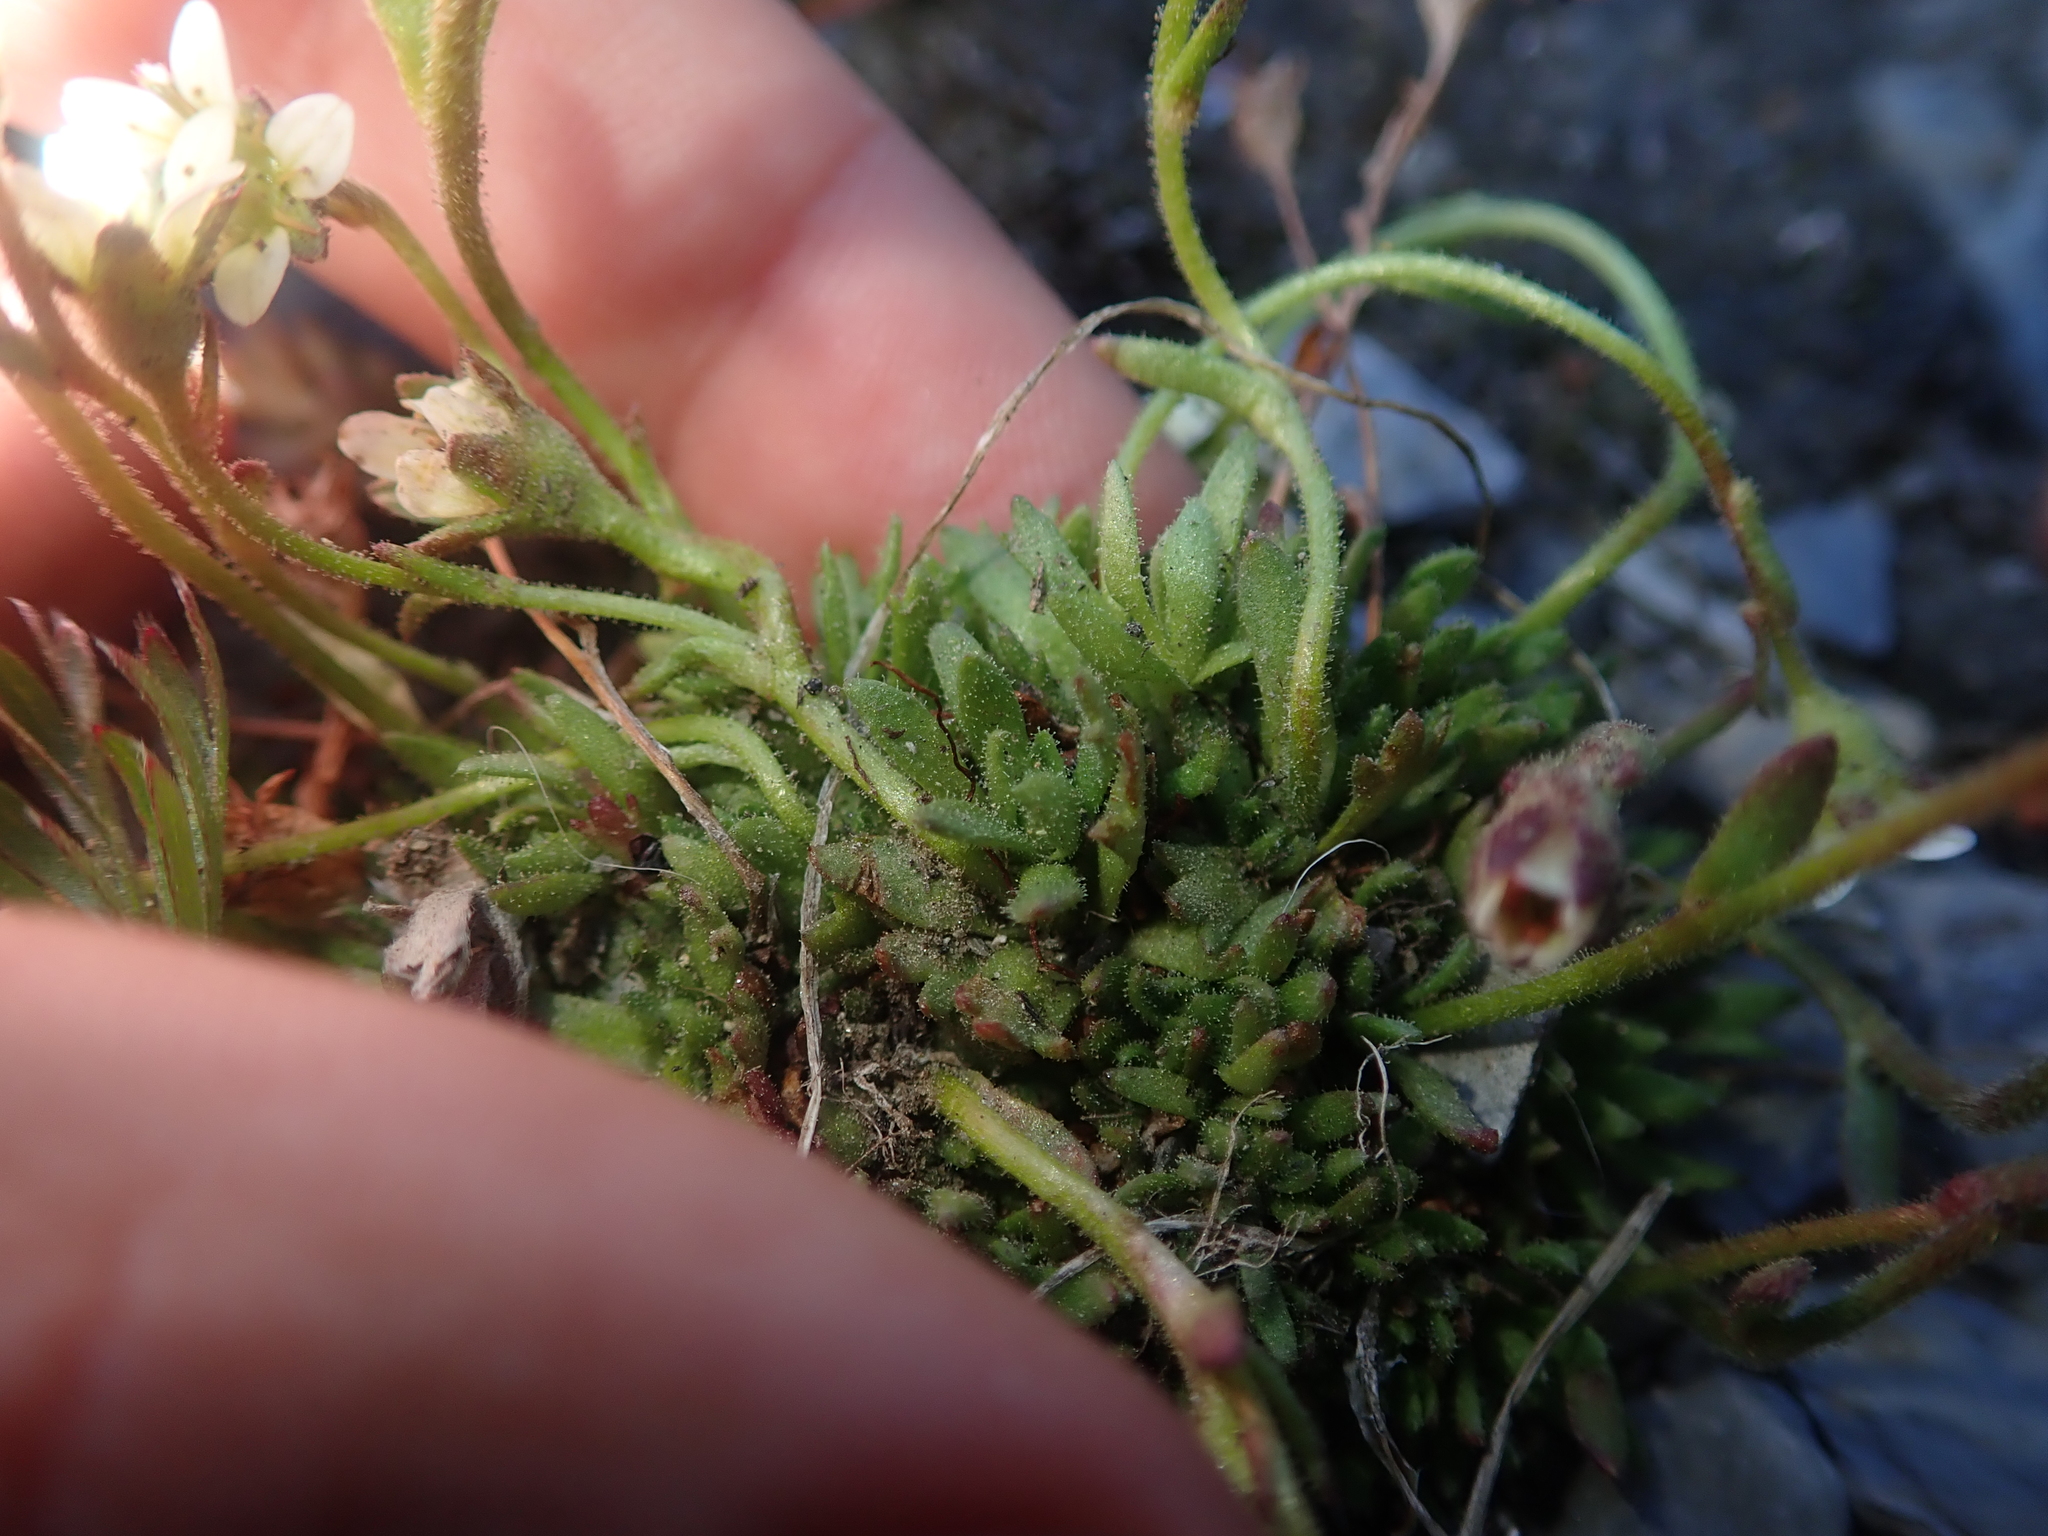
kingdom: Plantae
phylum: Tracheophyta
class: Magnoliopsida
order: Saxifragales
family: Saxifragaceae
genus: Saxifraga
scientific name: Saxifraga cespitosa
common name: Tufted saxifrage
